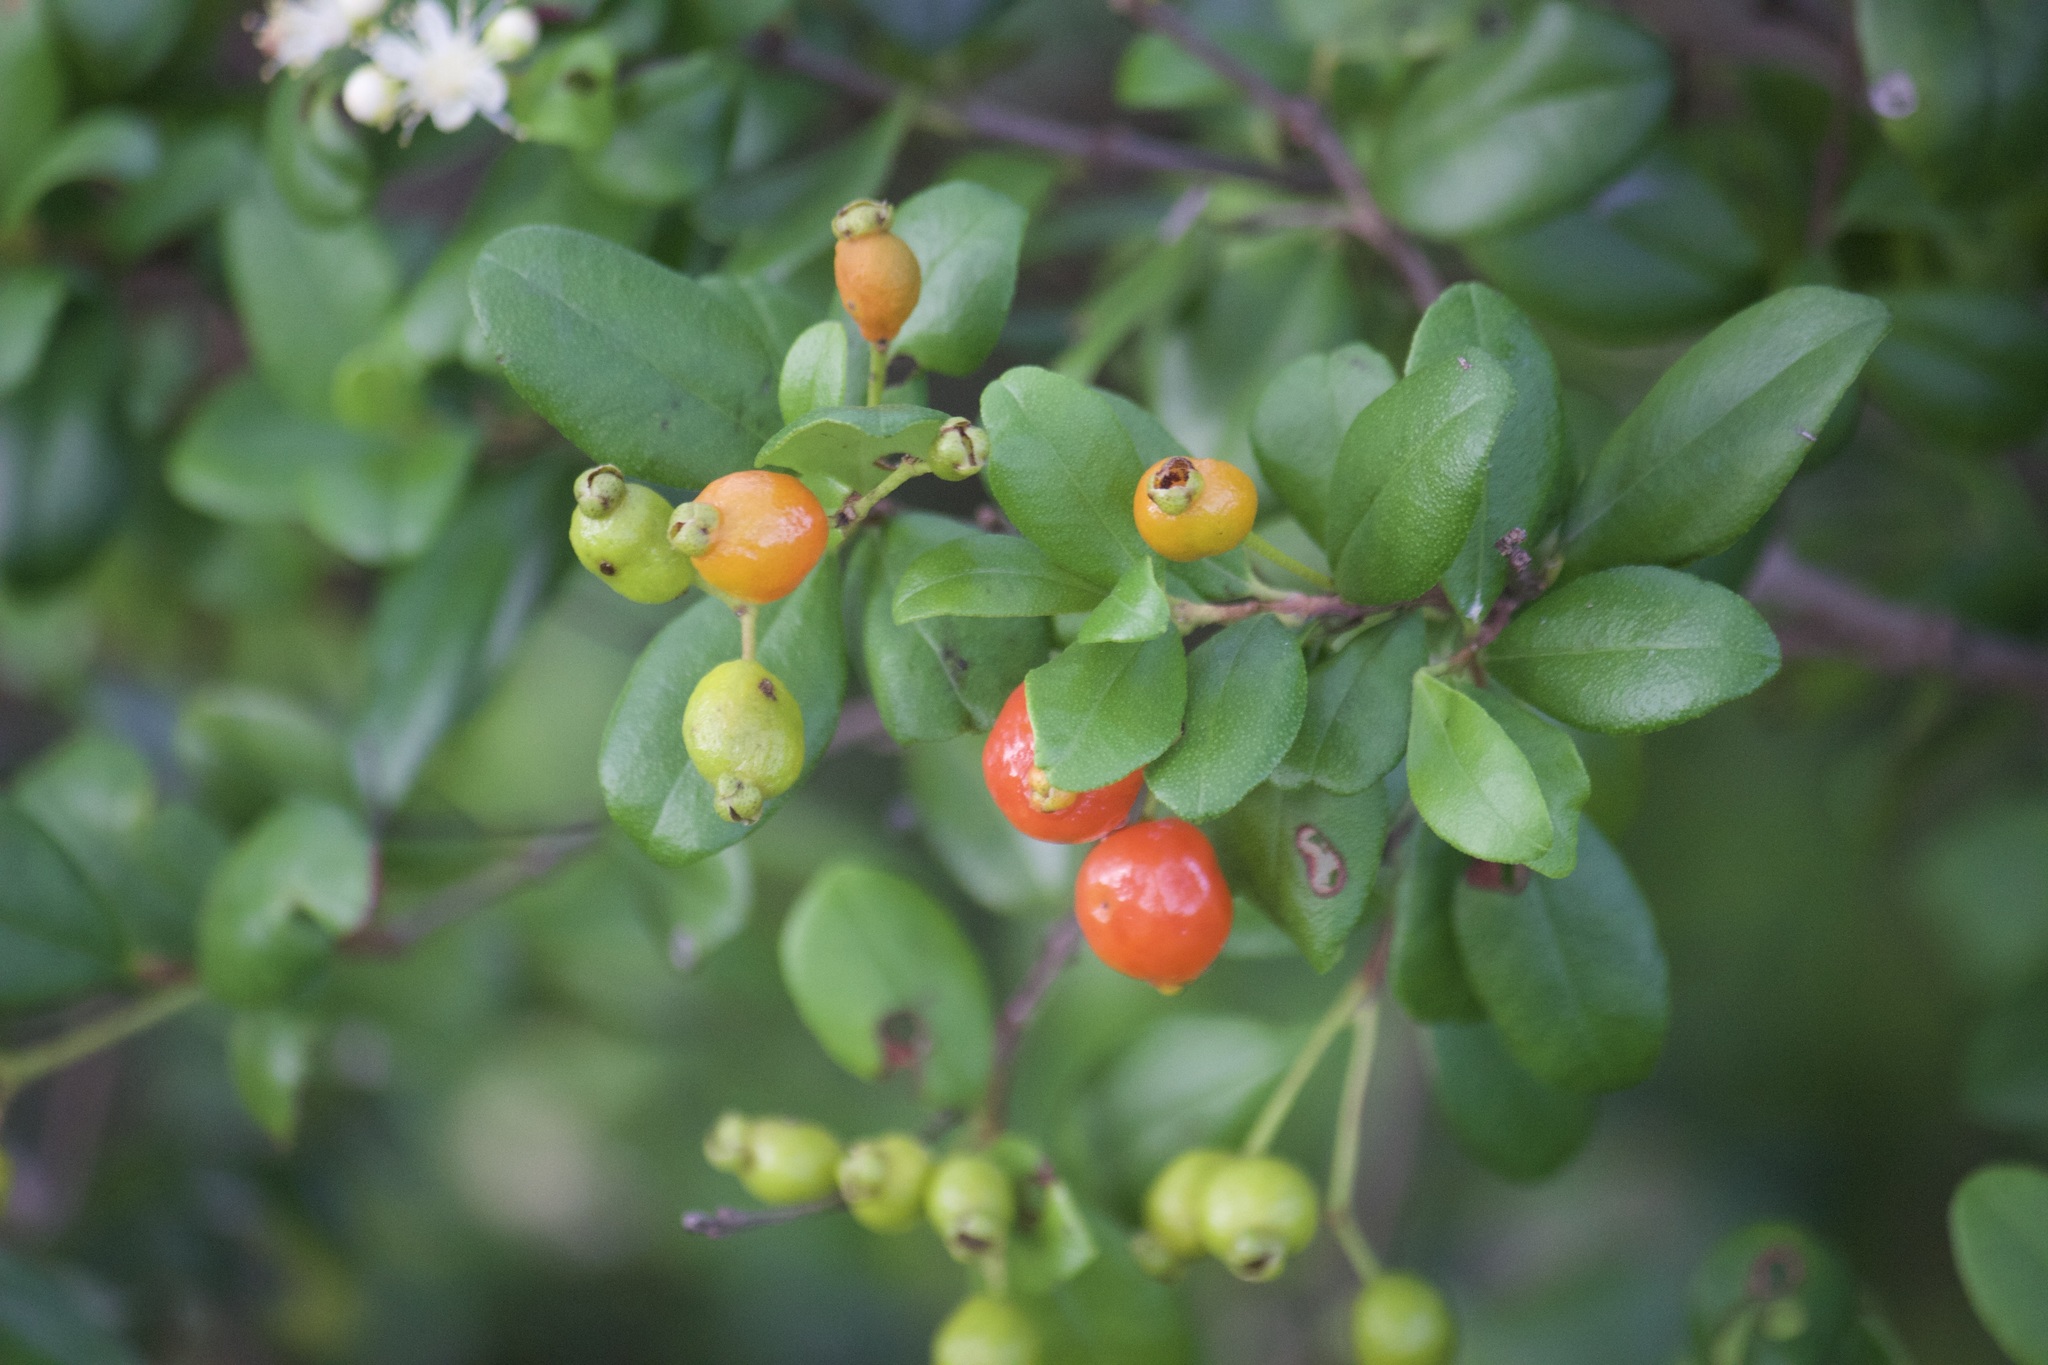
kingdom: Plantae
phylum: Tracheophyta
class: Magnoliopsida
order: Myrtales
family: Myrtaceae
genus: Myrcianthes
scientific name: Myrcianthes fragrans
